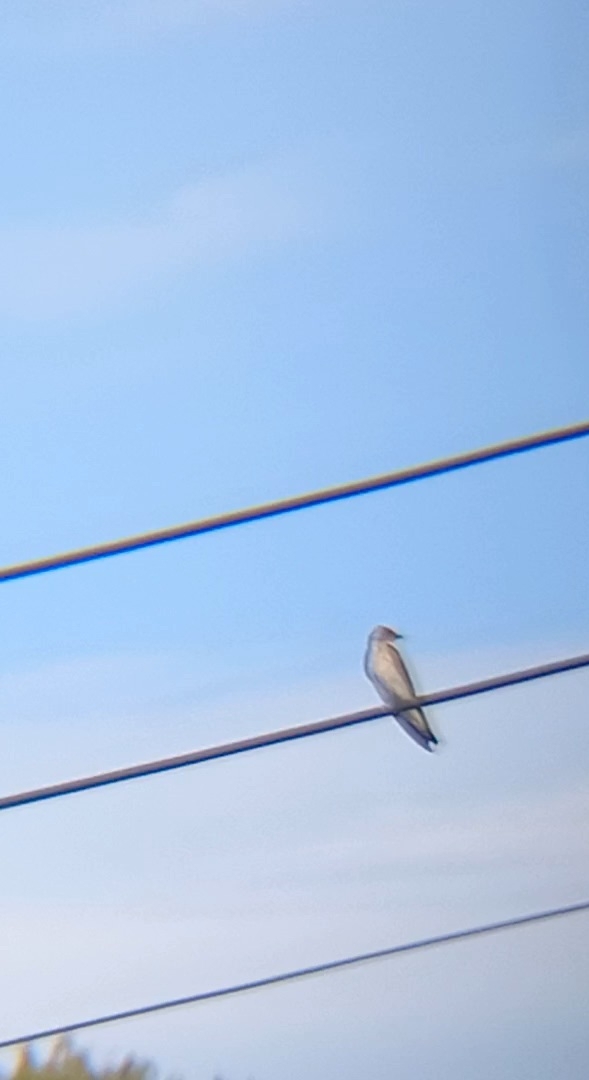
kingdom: Animalia
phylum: Chordata
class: Aves
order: Passeriformes
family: Hirundinidae
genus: Stelgidopteryx
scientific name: Stelgidopteryx serripennis
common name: Northern rough-winged swallow
